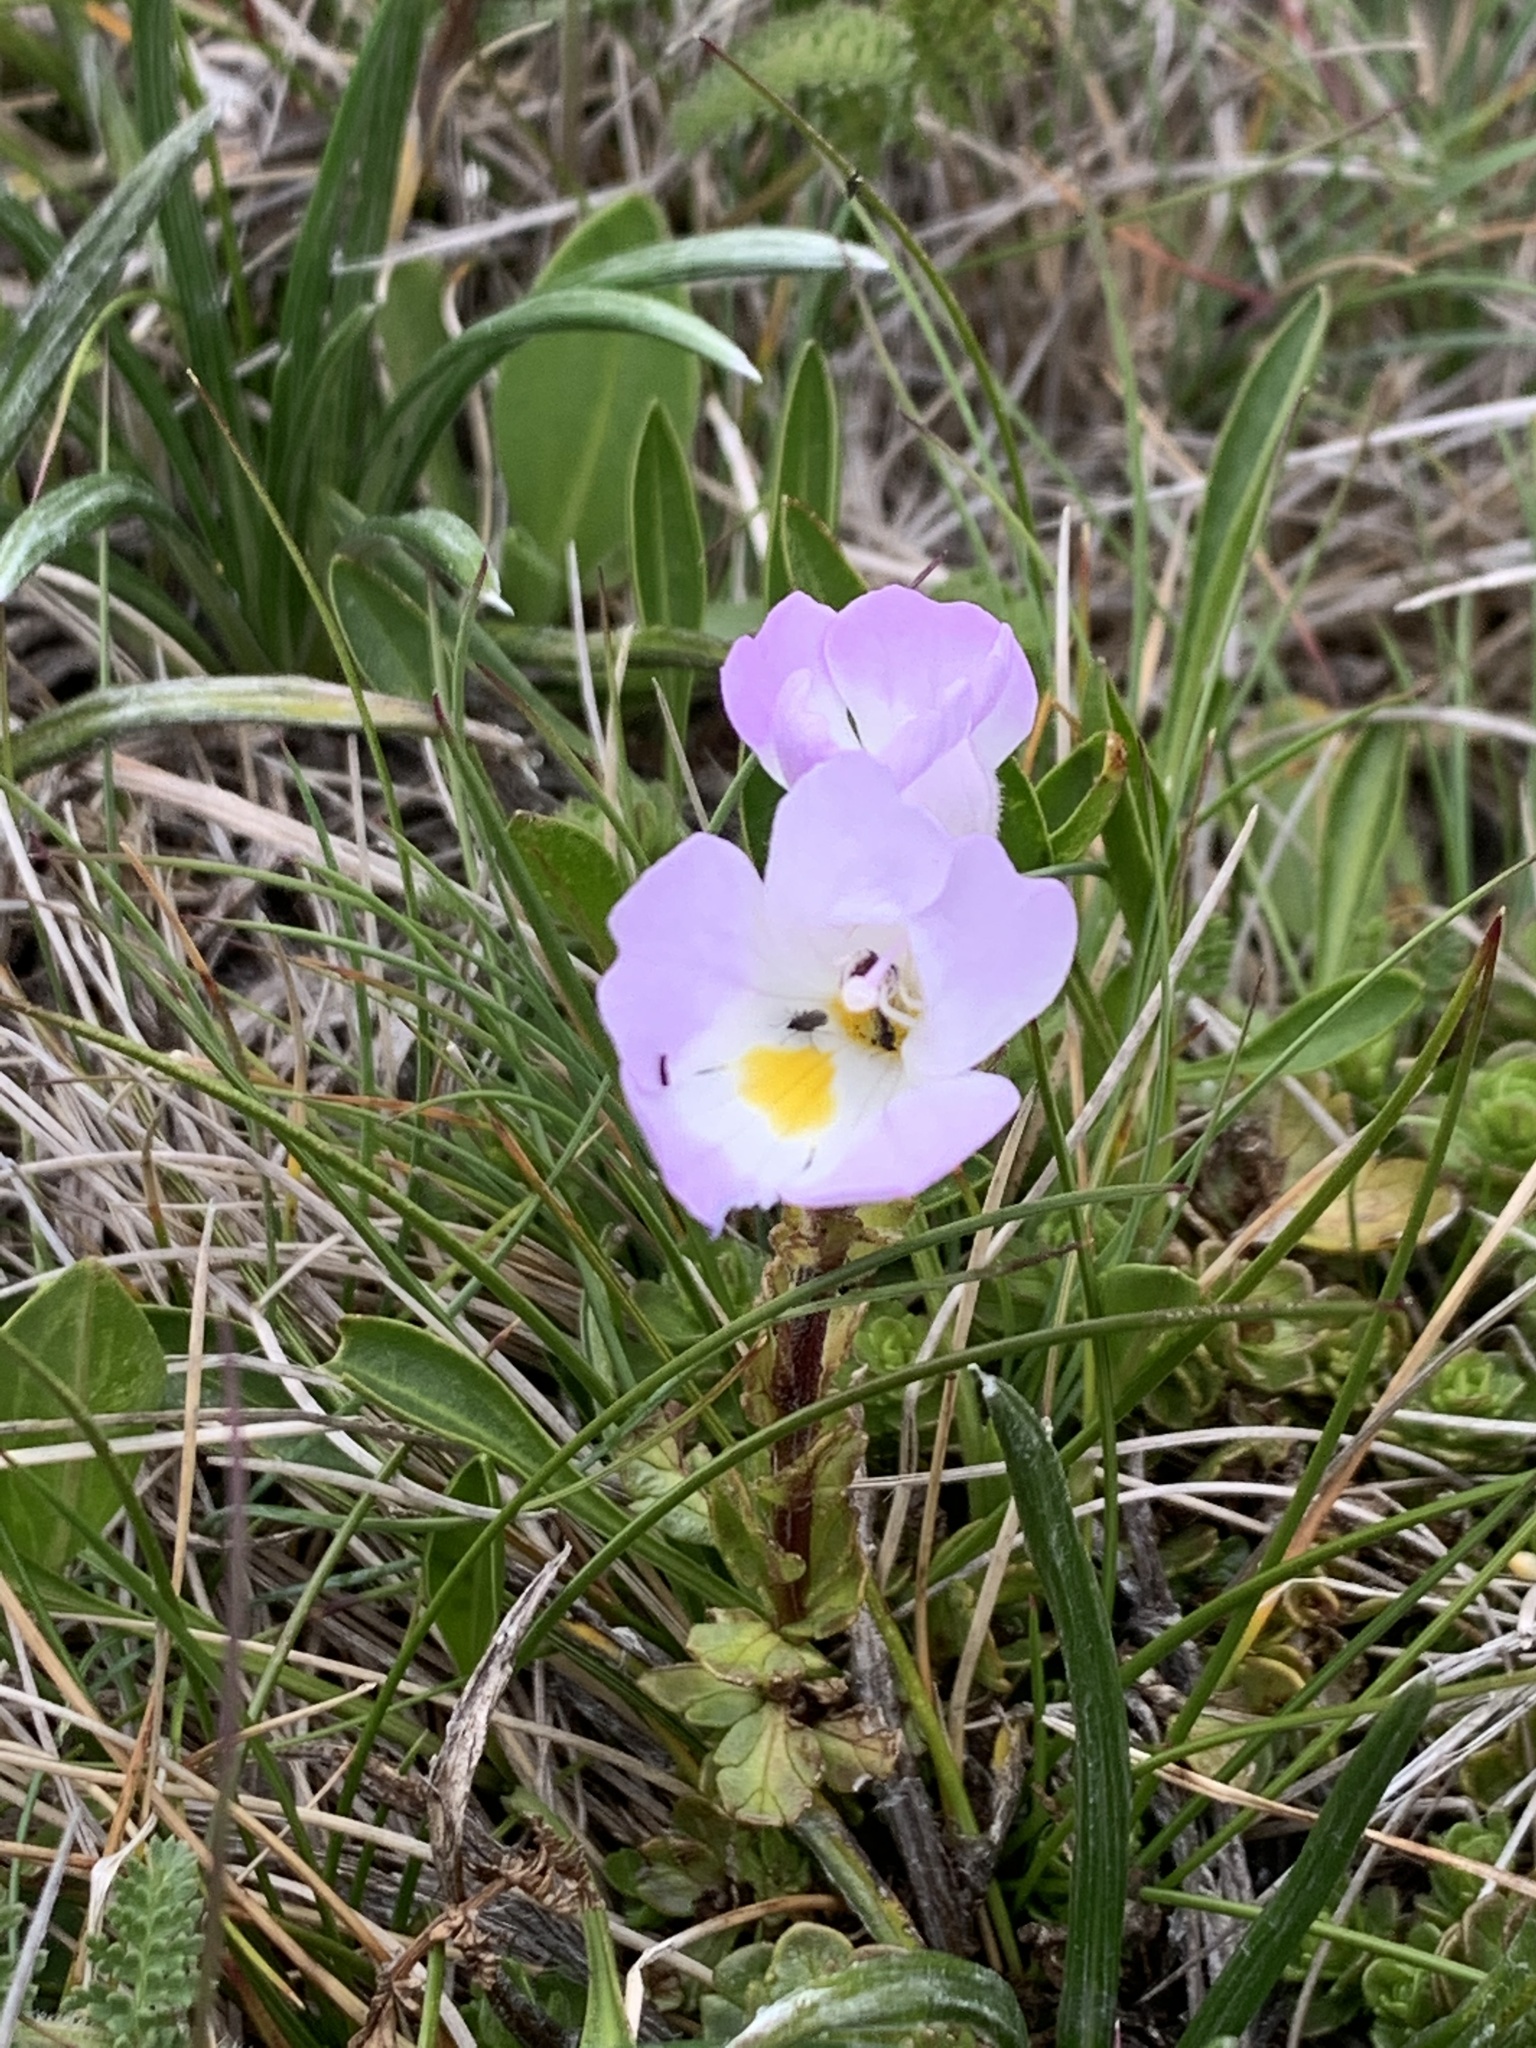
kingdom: Plantae
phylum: Tracheophyta
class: Magnoliopsida
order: Lamiales
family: Orobanchaceae
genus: Euphrasia
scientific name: Euphrasia collina
